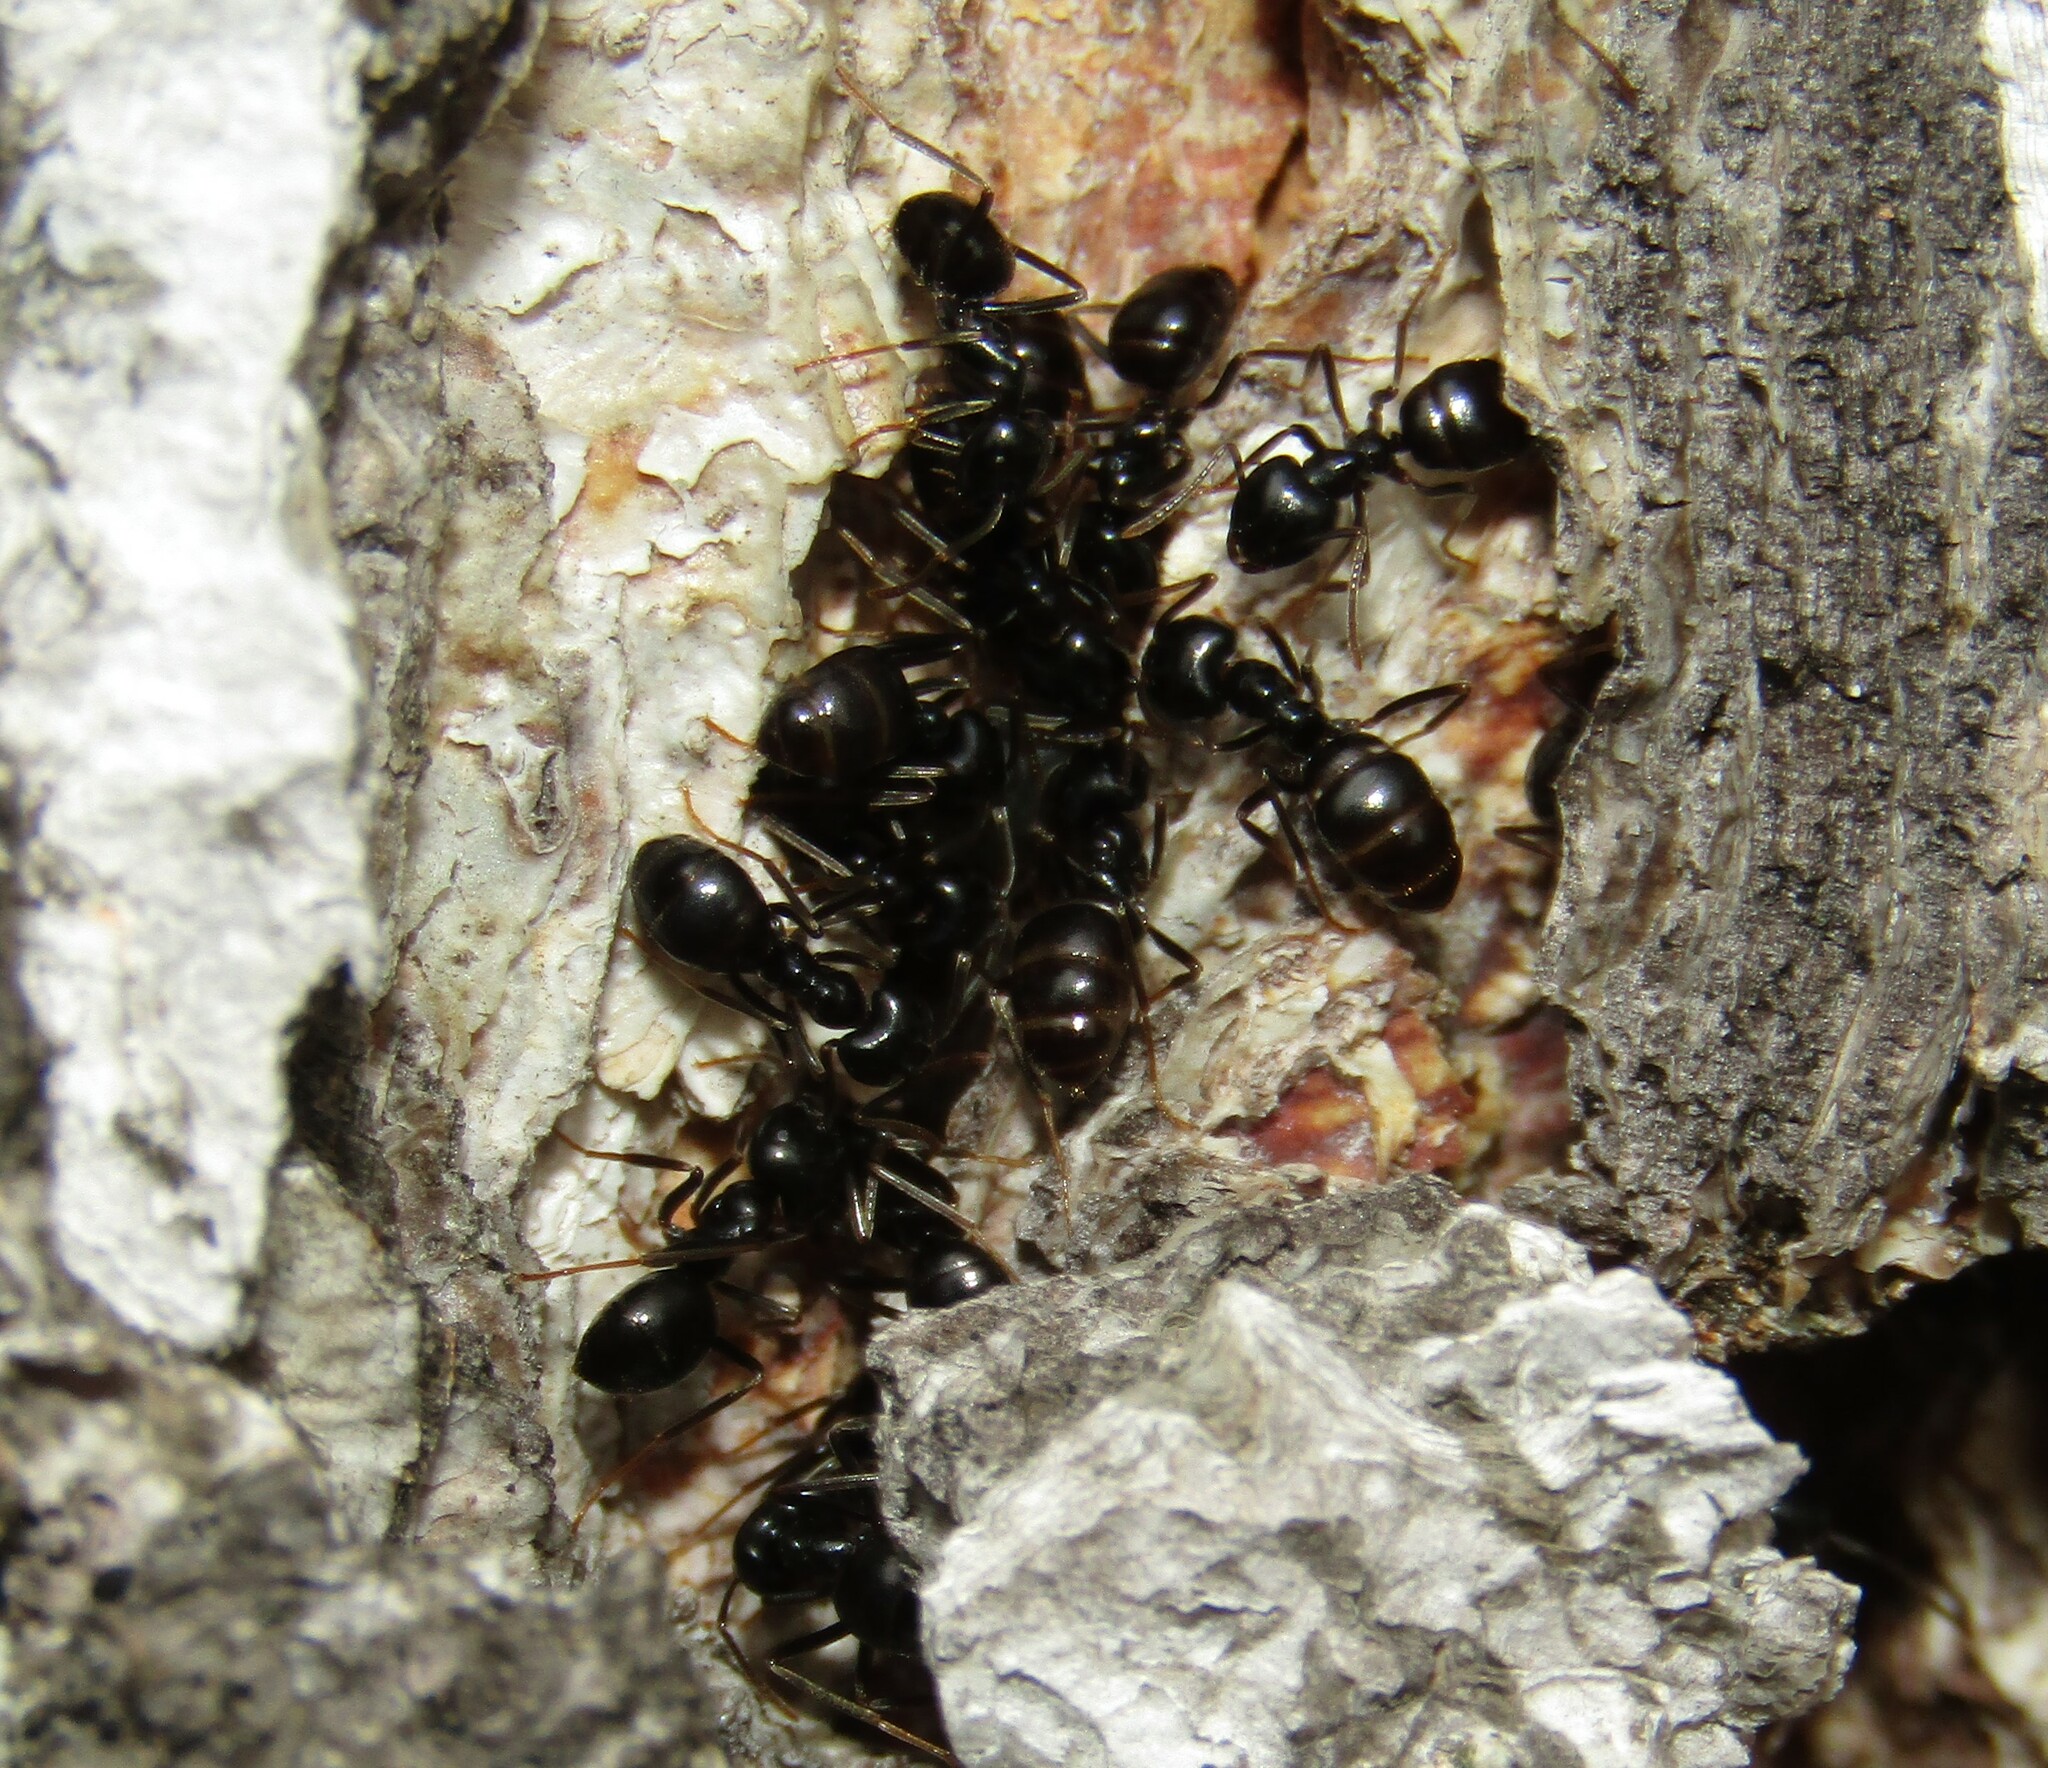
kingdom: Animalia
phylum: Arthropoda
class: Insecta
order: Hymenoptera
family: Formicidae
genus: Lasius
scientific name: Lasius fuliginosus
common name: Jet ant
